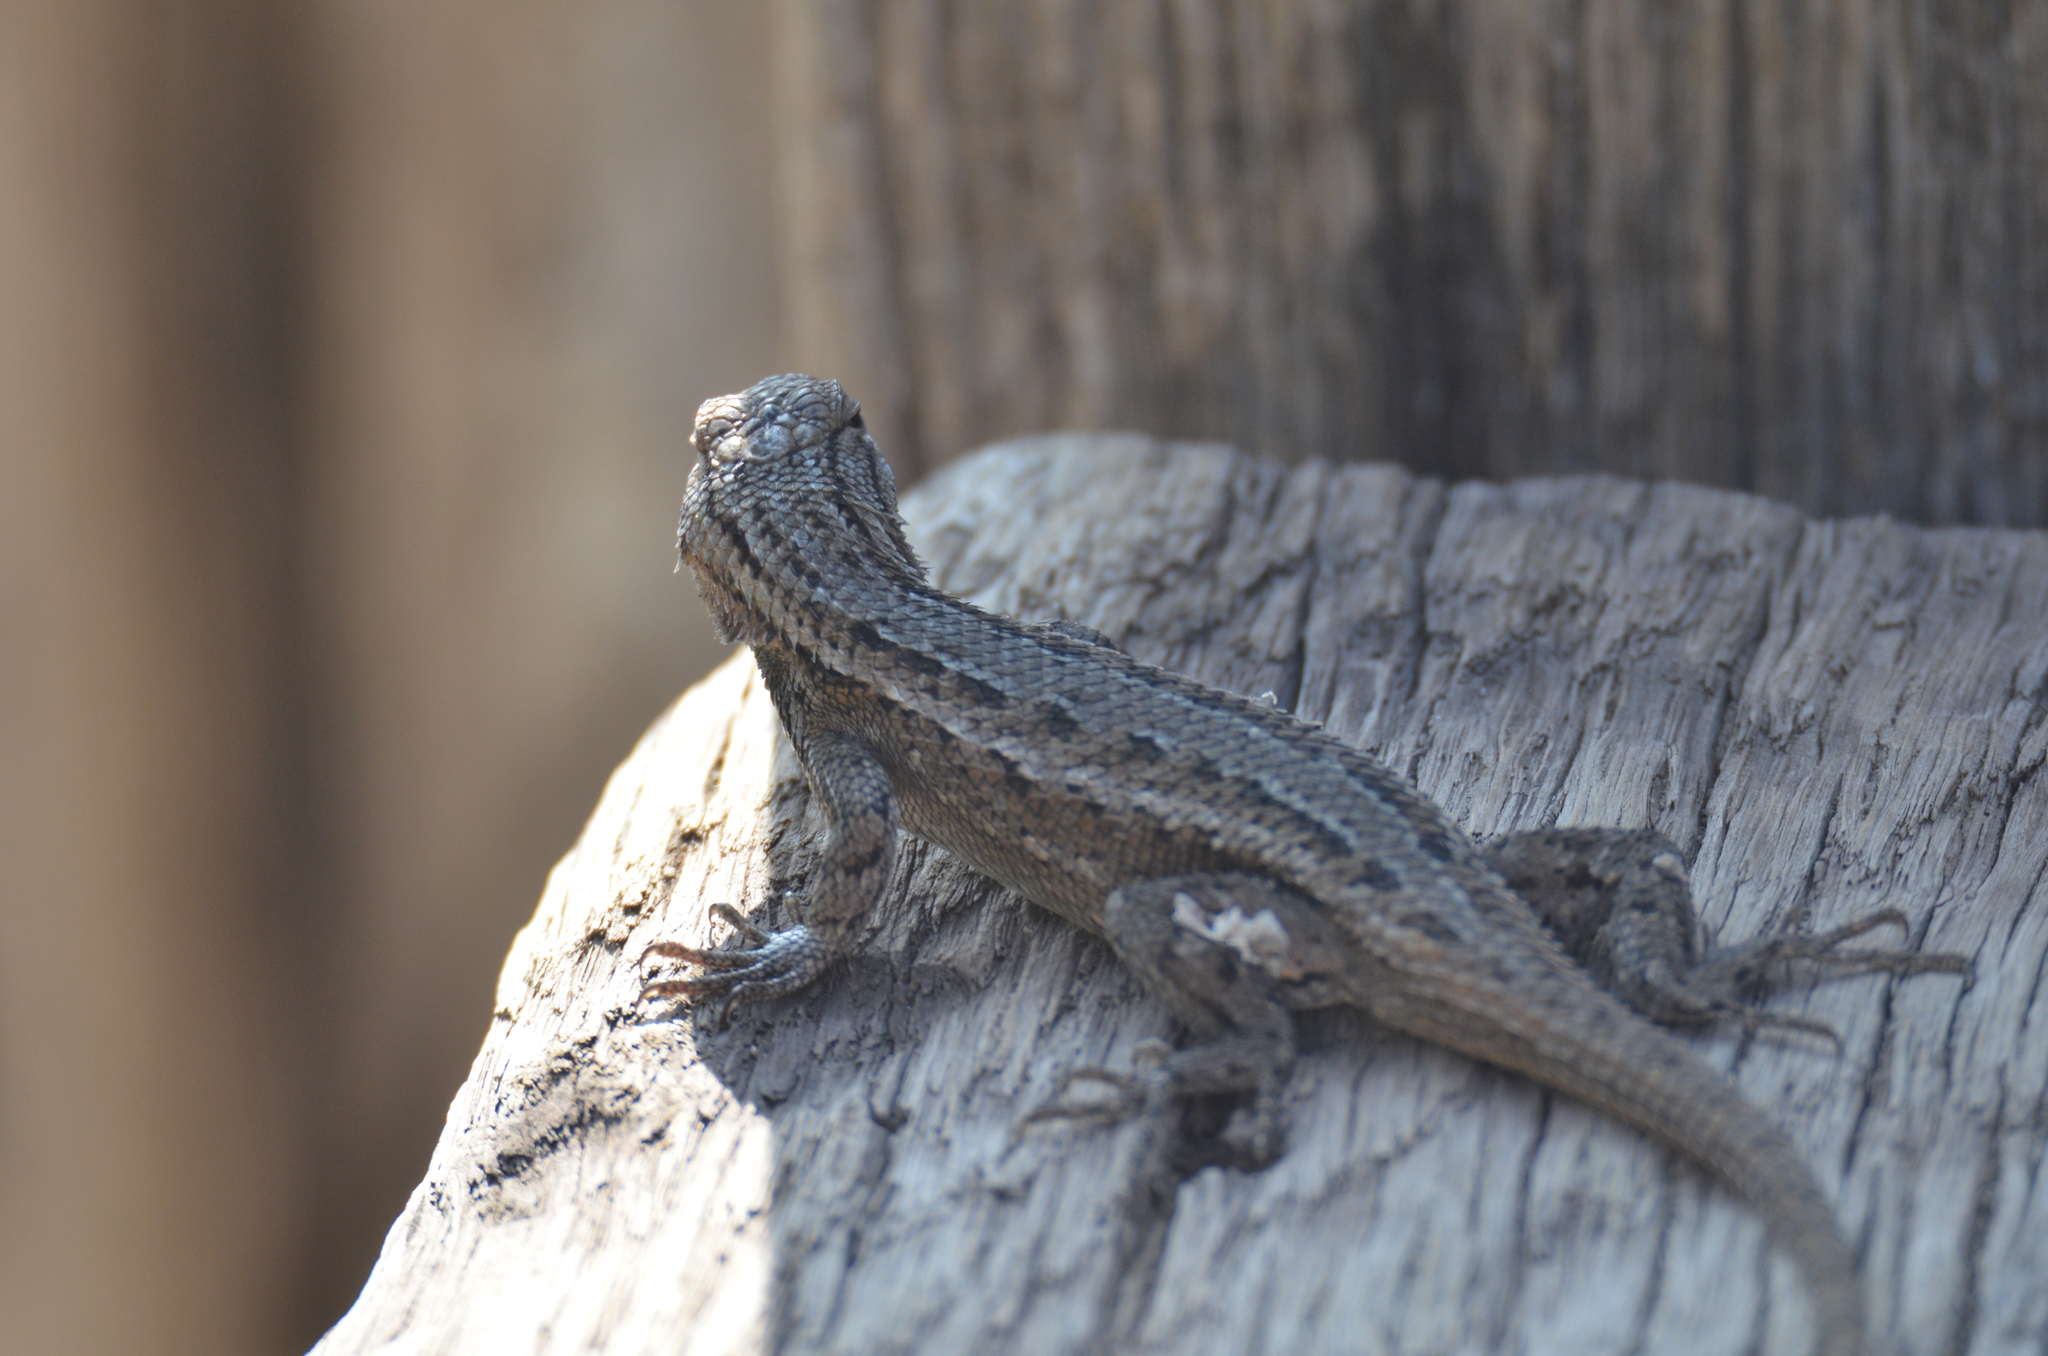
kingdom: Animalia
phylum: Chordata
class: Squamata
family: Phrynosomatidae
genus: Sceloporus
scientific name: Sceloporus cowlesi
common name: White sands prairie lizard
